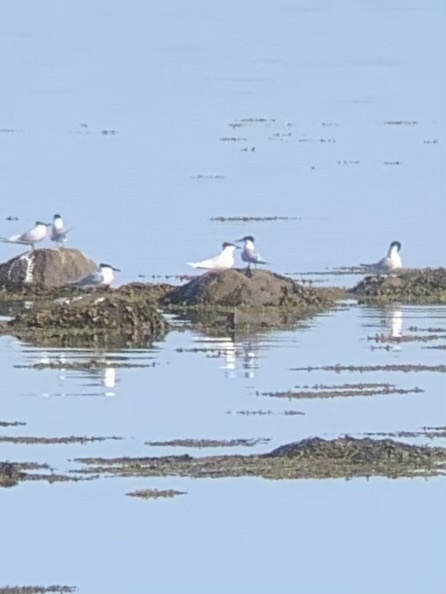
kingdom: Animalia
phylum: Chordata
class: Aves
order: Charadriiformes
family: Laridae
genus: Thalasseus
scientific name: Thalasseus sandvicensis
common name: Sandwich tern
